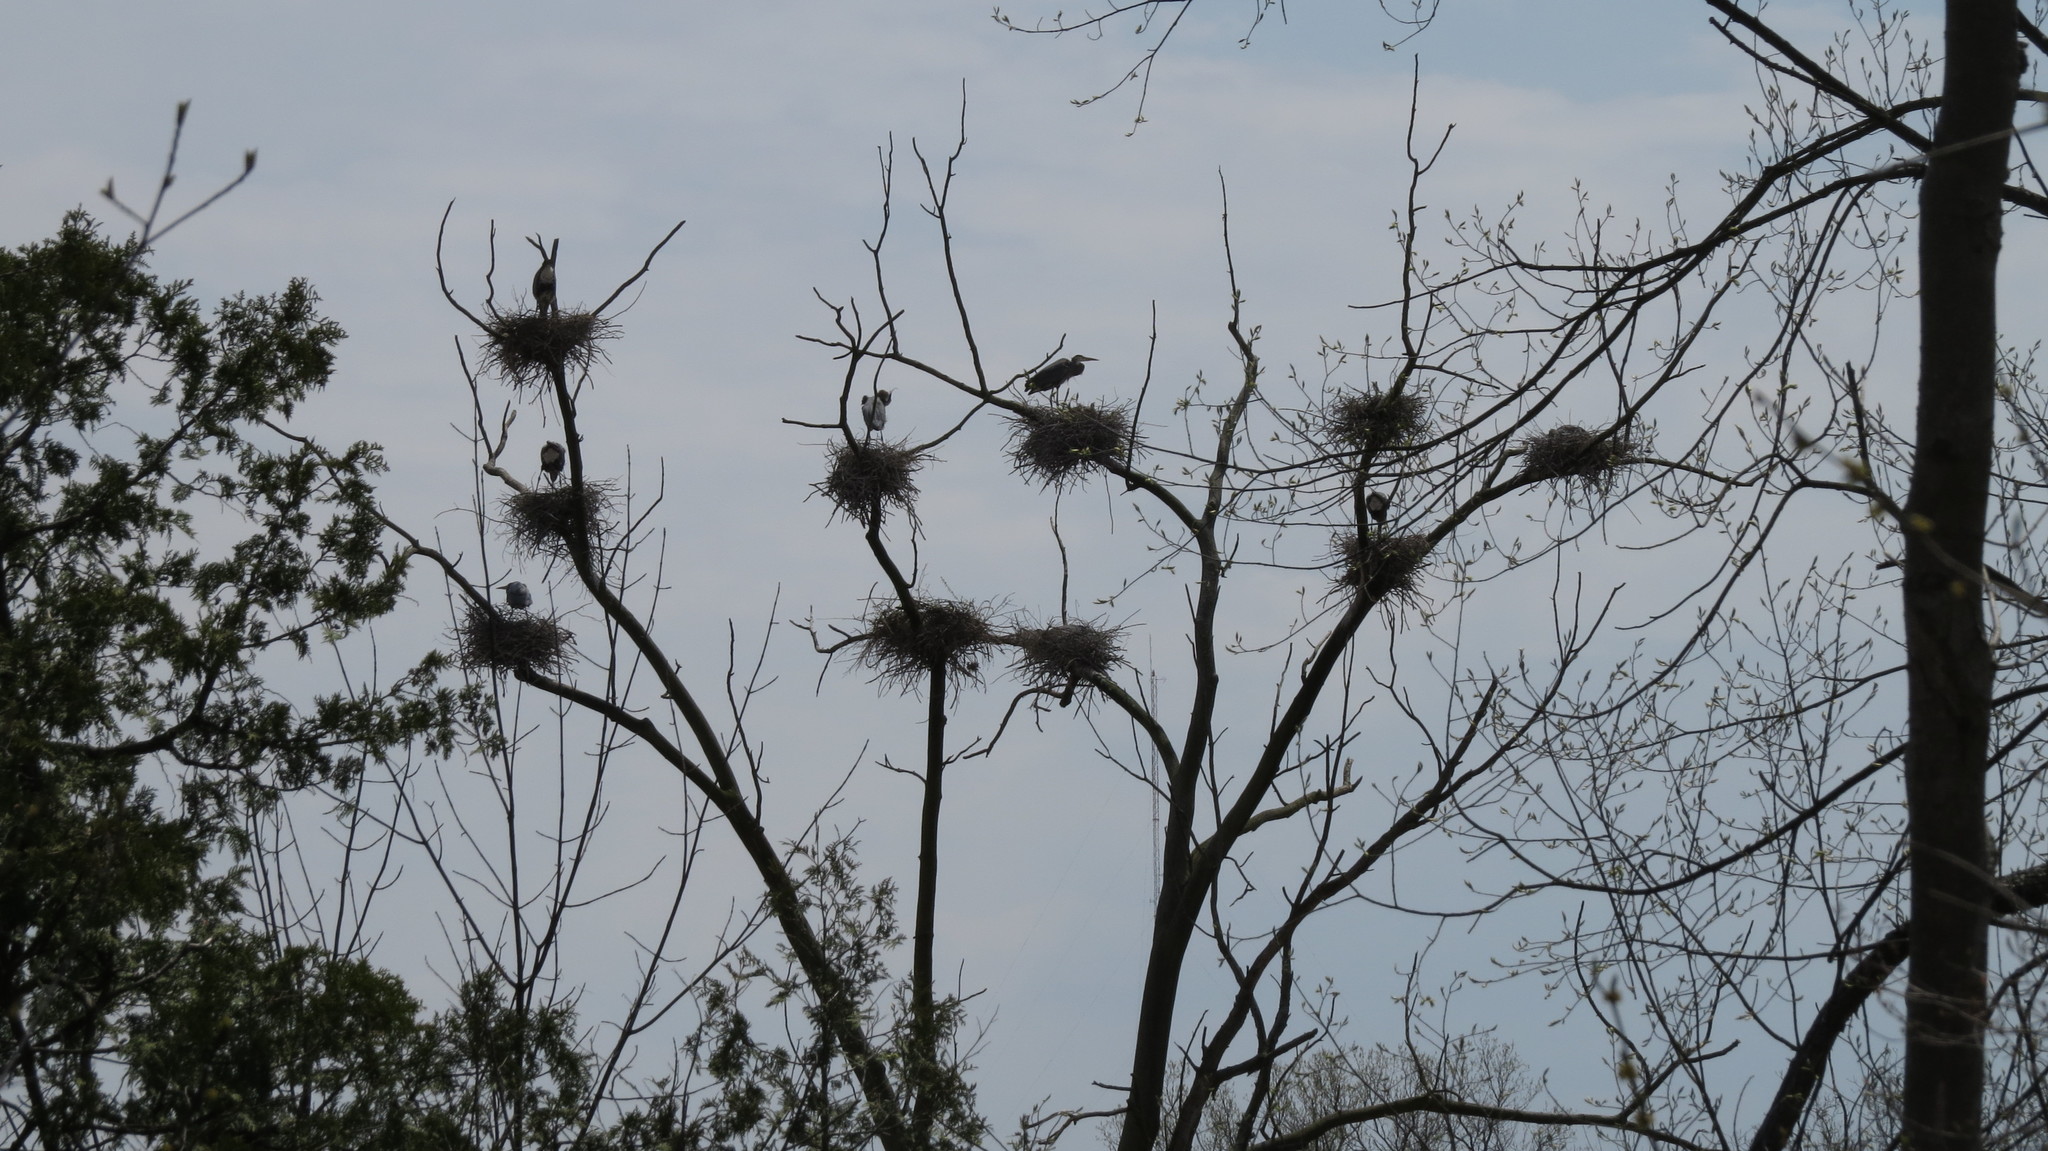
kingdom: Animalia
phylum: Chordata
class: Aves
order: Pelecaniformes
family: Ardeidae
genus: Ardea
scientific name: Ardea herodias
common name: Great blue heron
